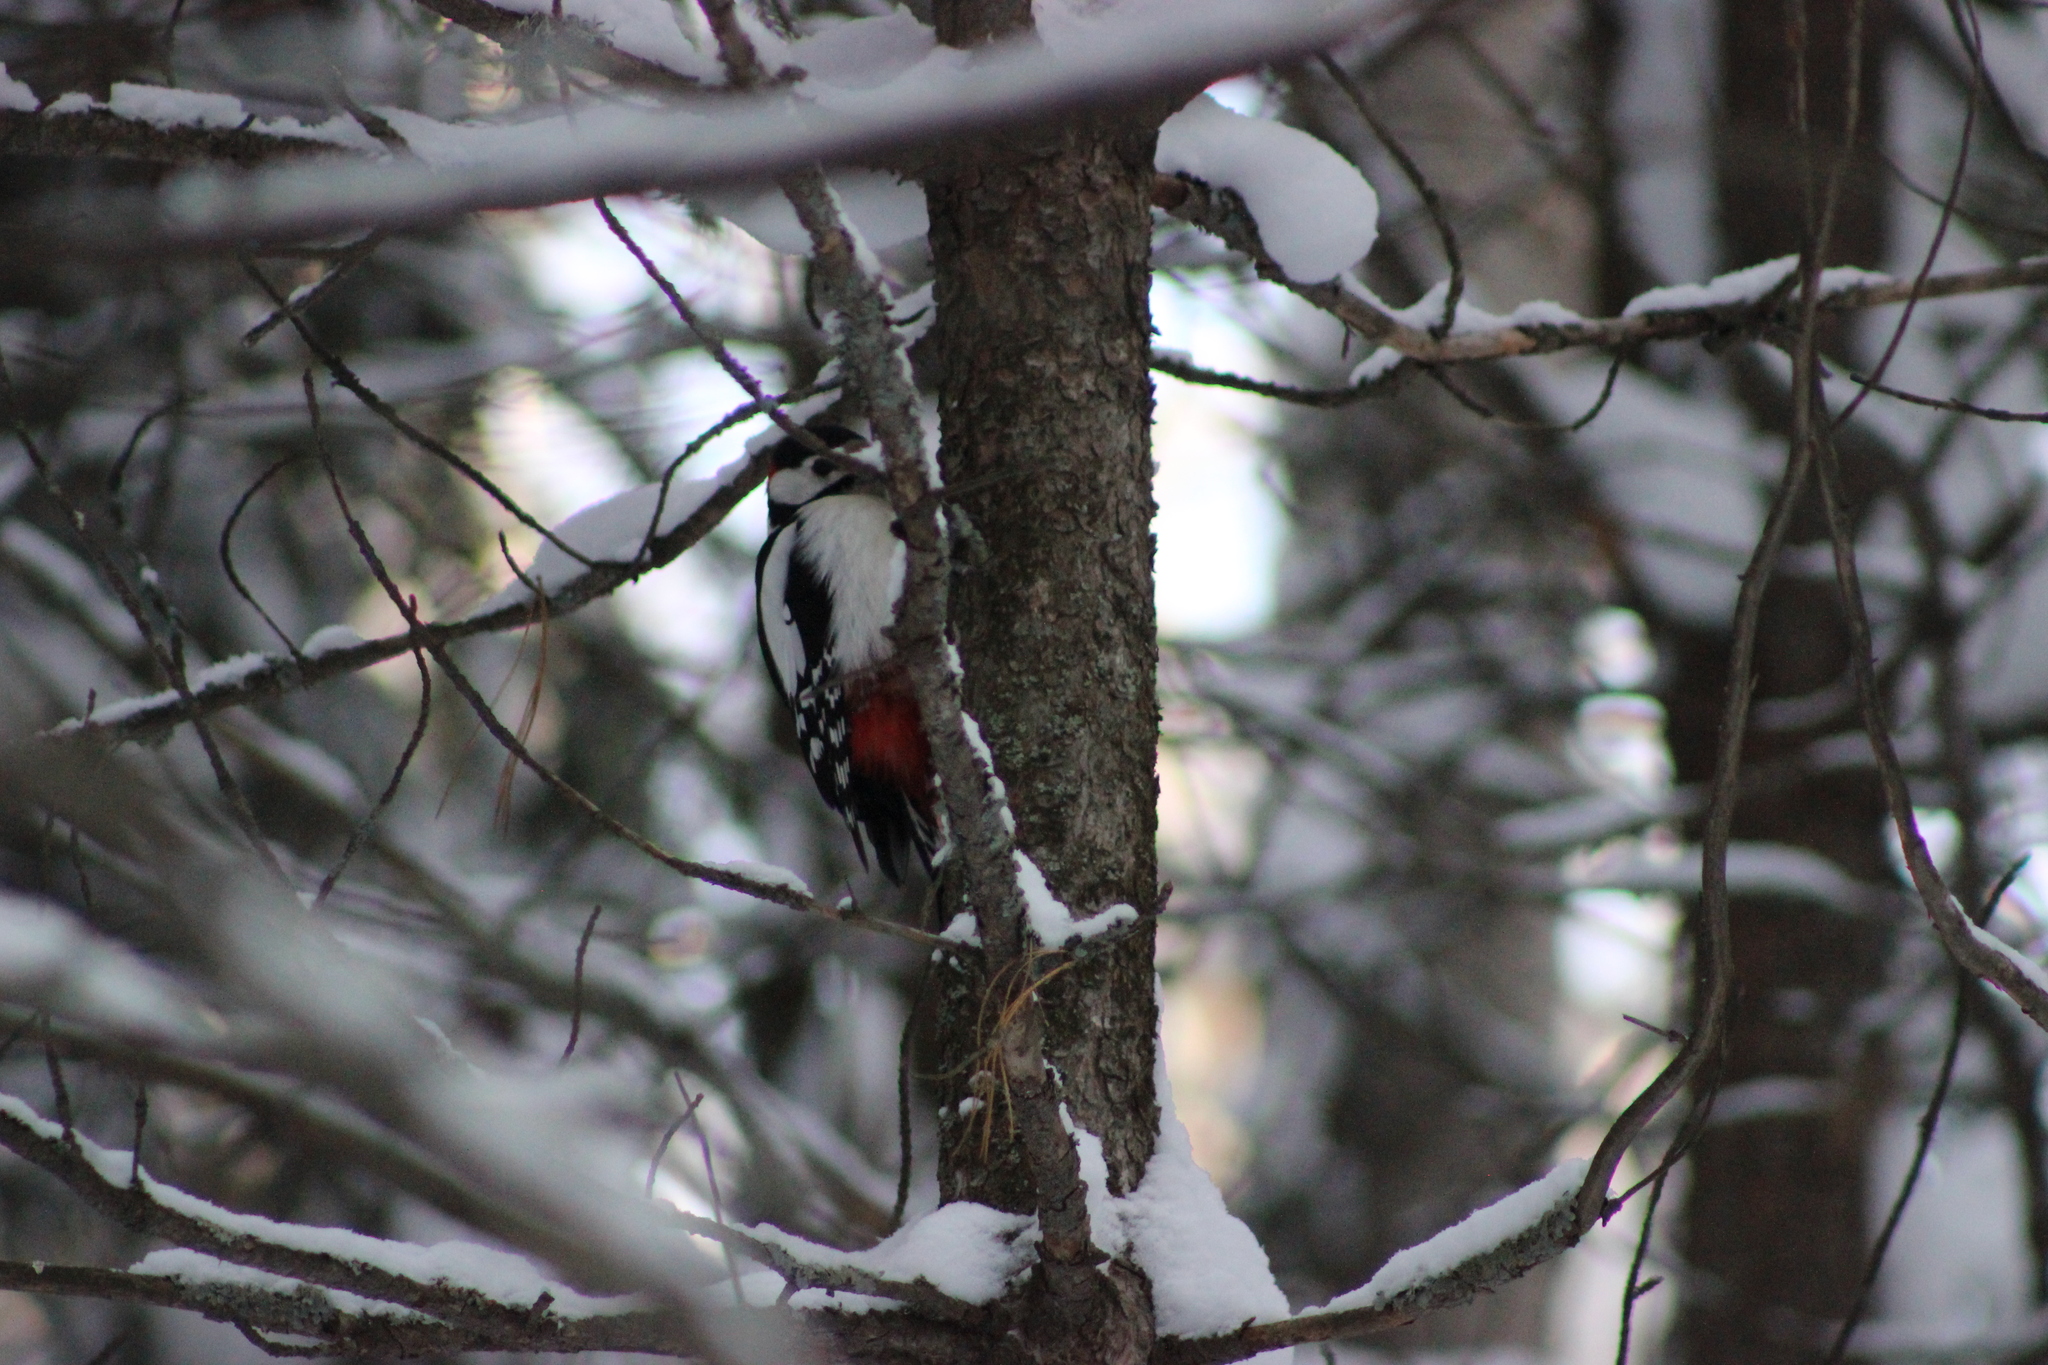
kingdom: Animalia
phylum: Chordata
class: Aves
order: Piciformes
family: Picidae
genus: Dendrocopos
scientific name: Dendrocopos major
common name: Great spotted woodpecker
